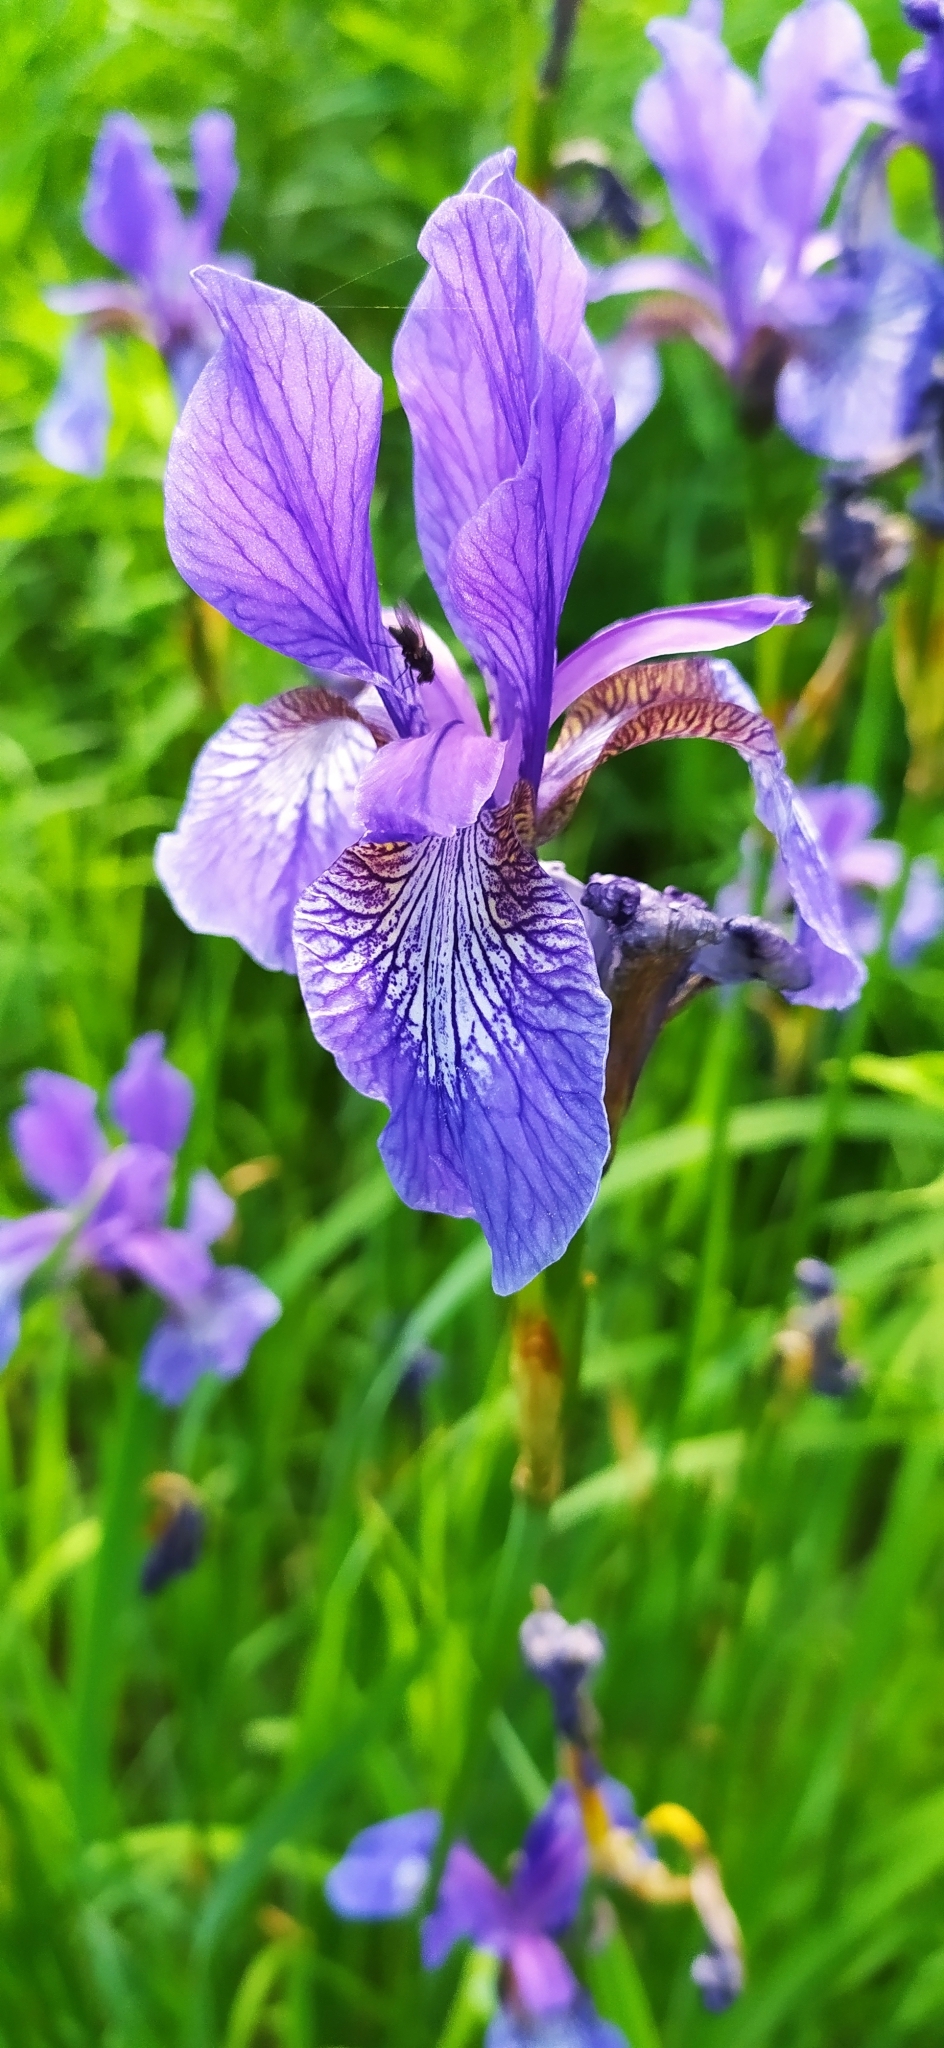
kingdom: Plantae
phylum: Tracheophyta
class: Liliopsida
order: Asparagales
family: Iridaceae
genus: Iris
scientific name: Iris sibirica
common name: Siberian iris
